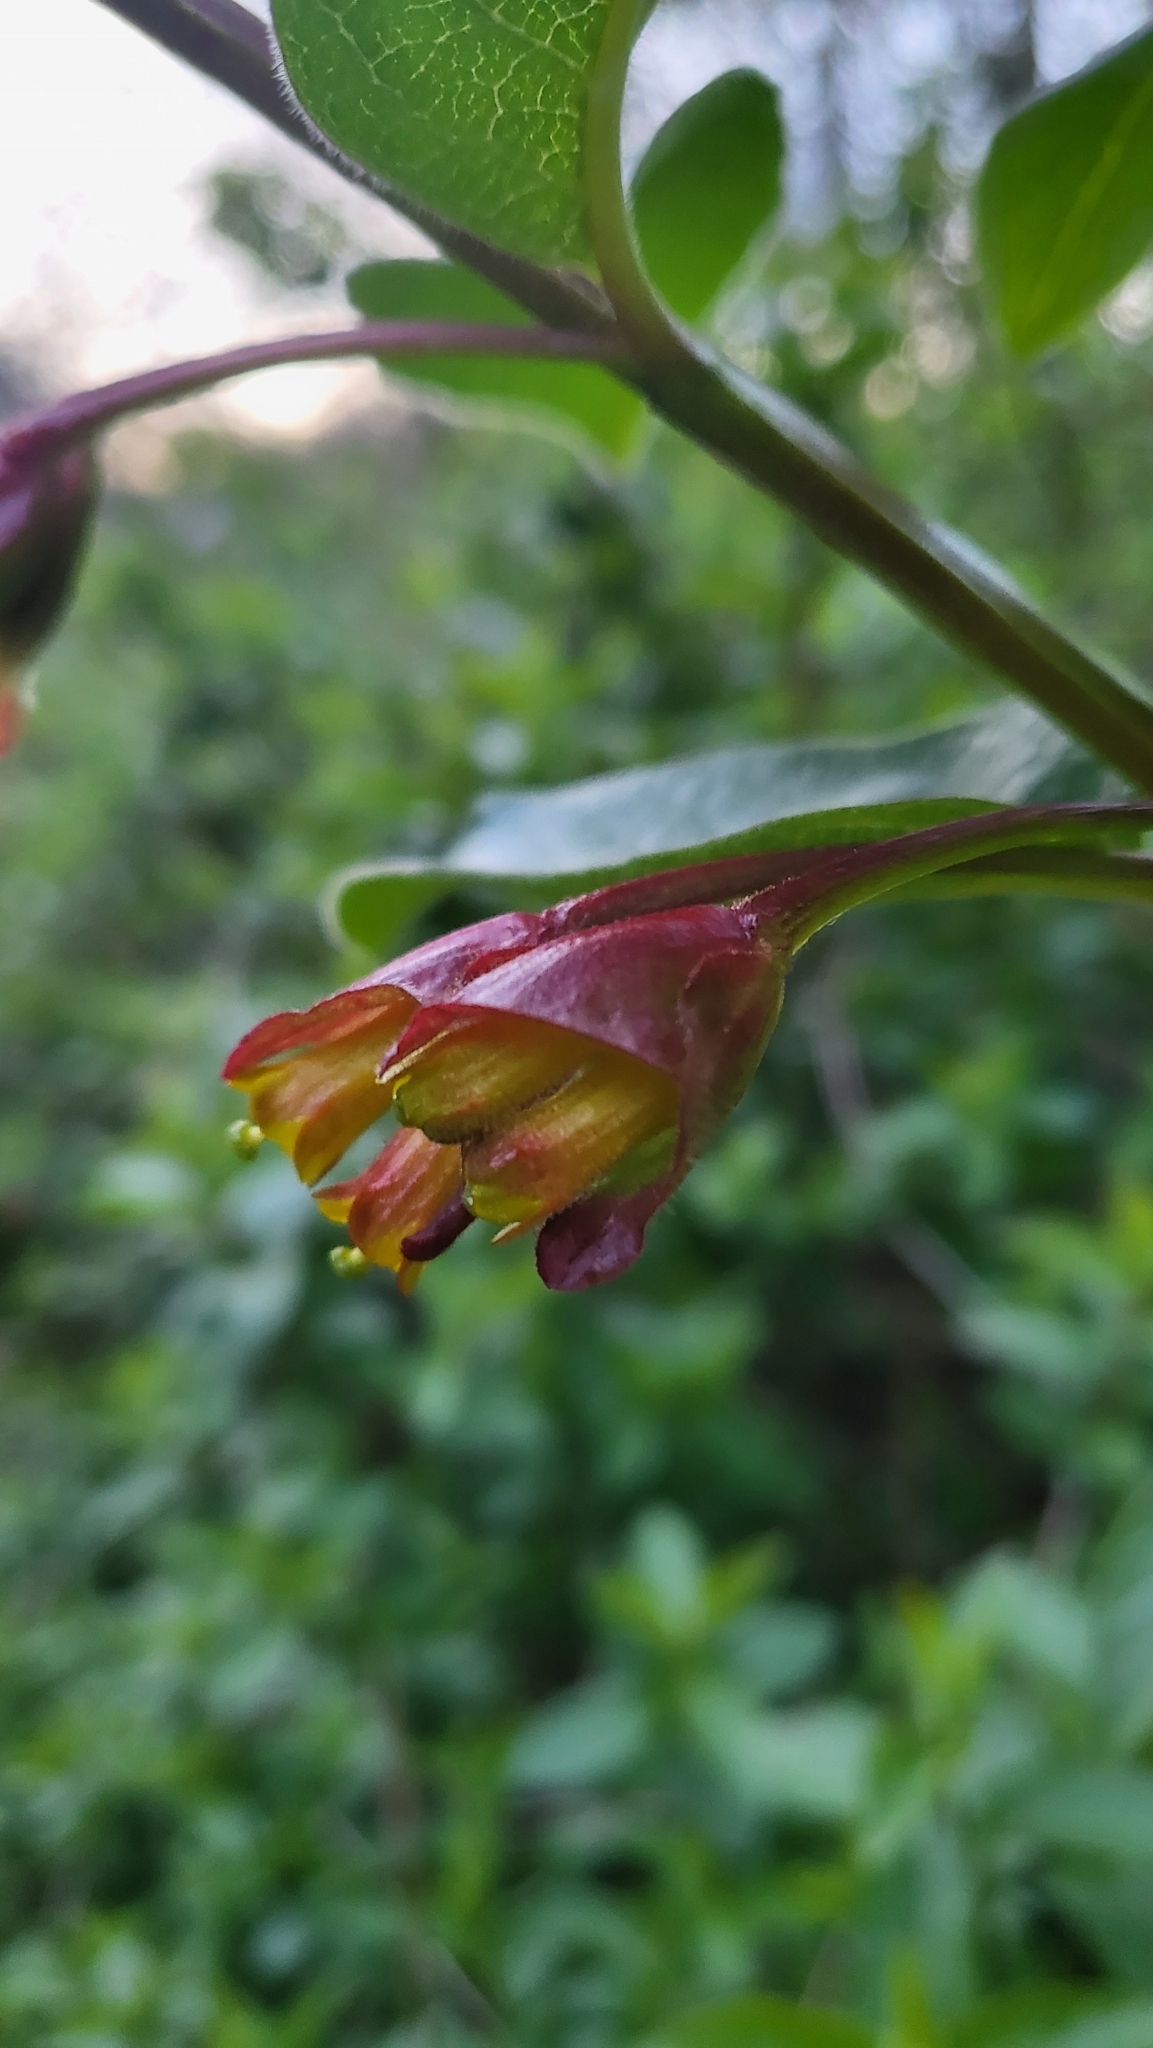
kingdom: Plantae
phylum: Tracheophyta
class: Magnoliopsida
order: Dipsacales
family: Caprifoliaceae
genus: Lonicera
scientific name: Lonicera involucrata
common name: Californian honeysuckle
